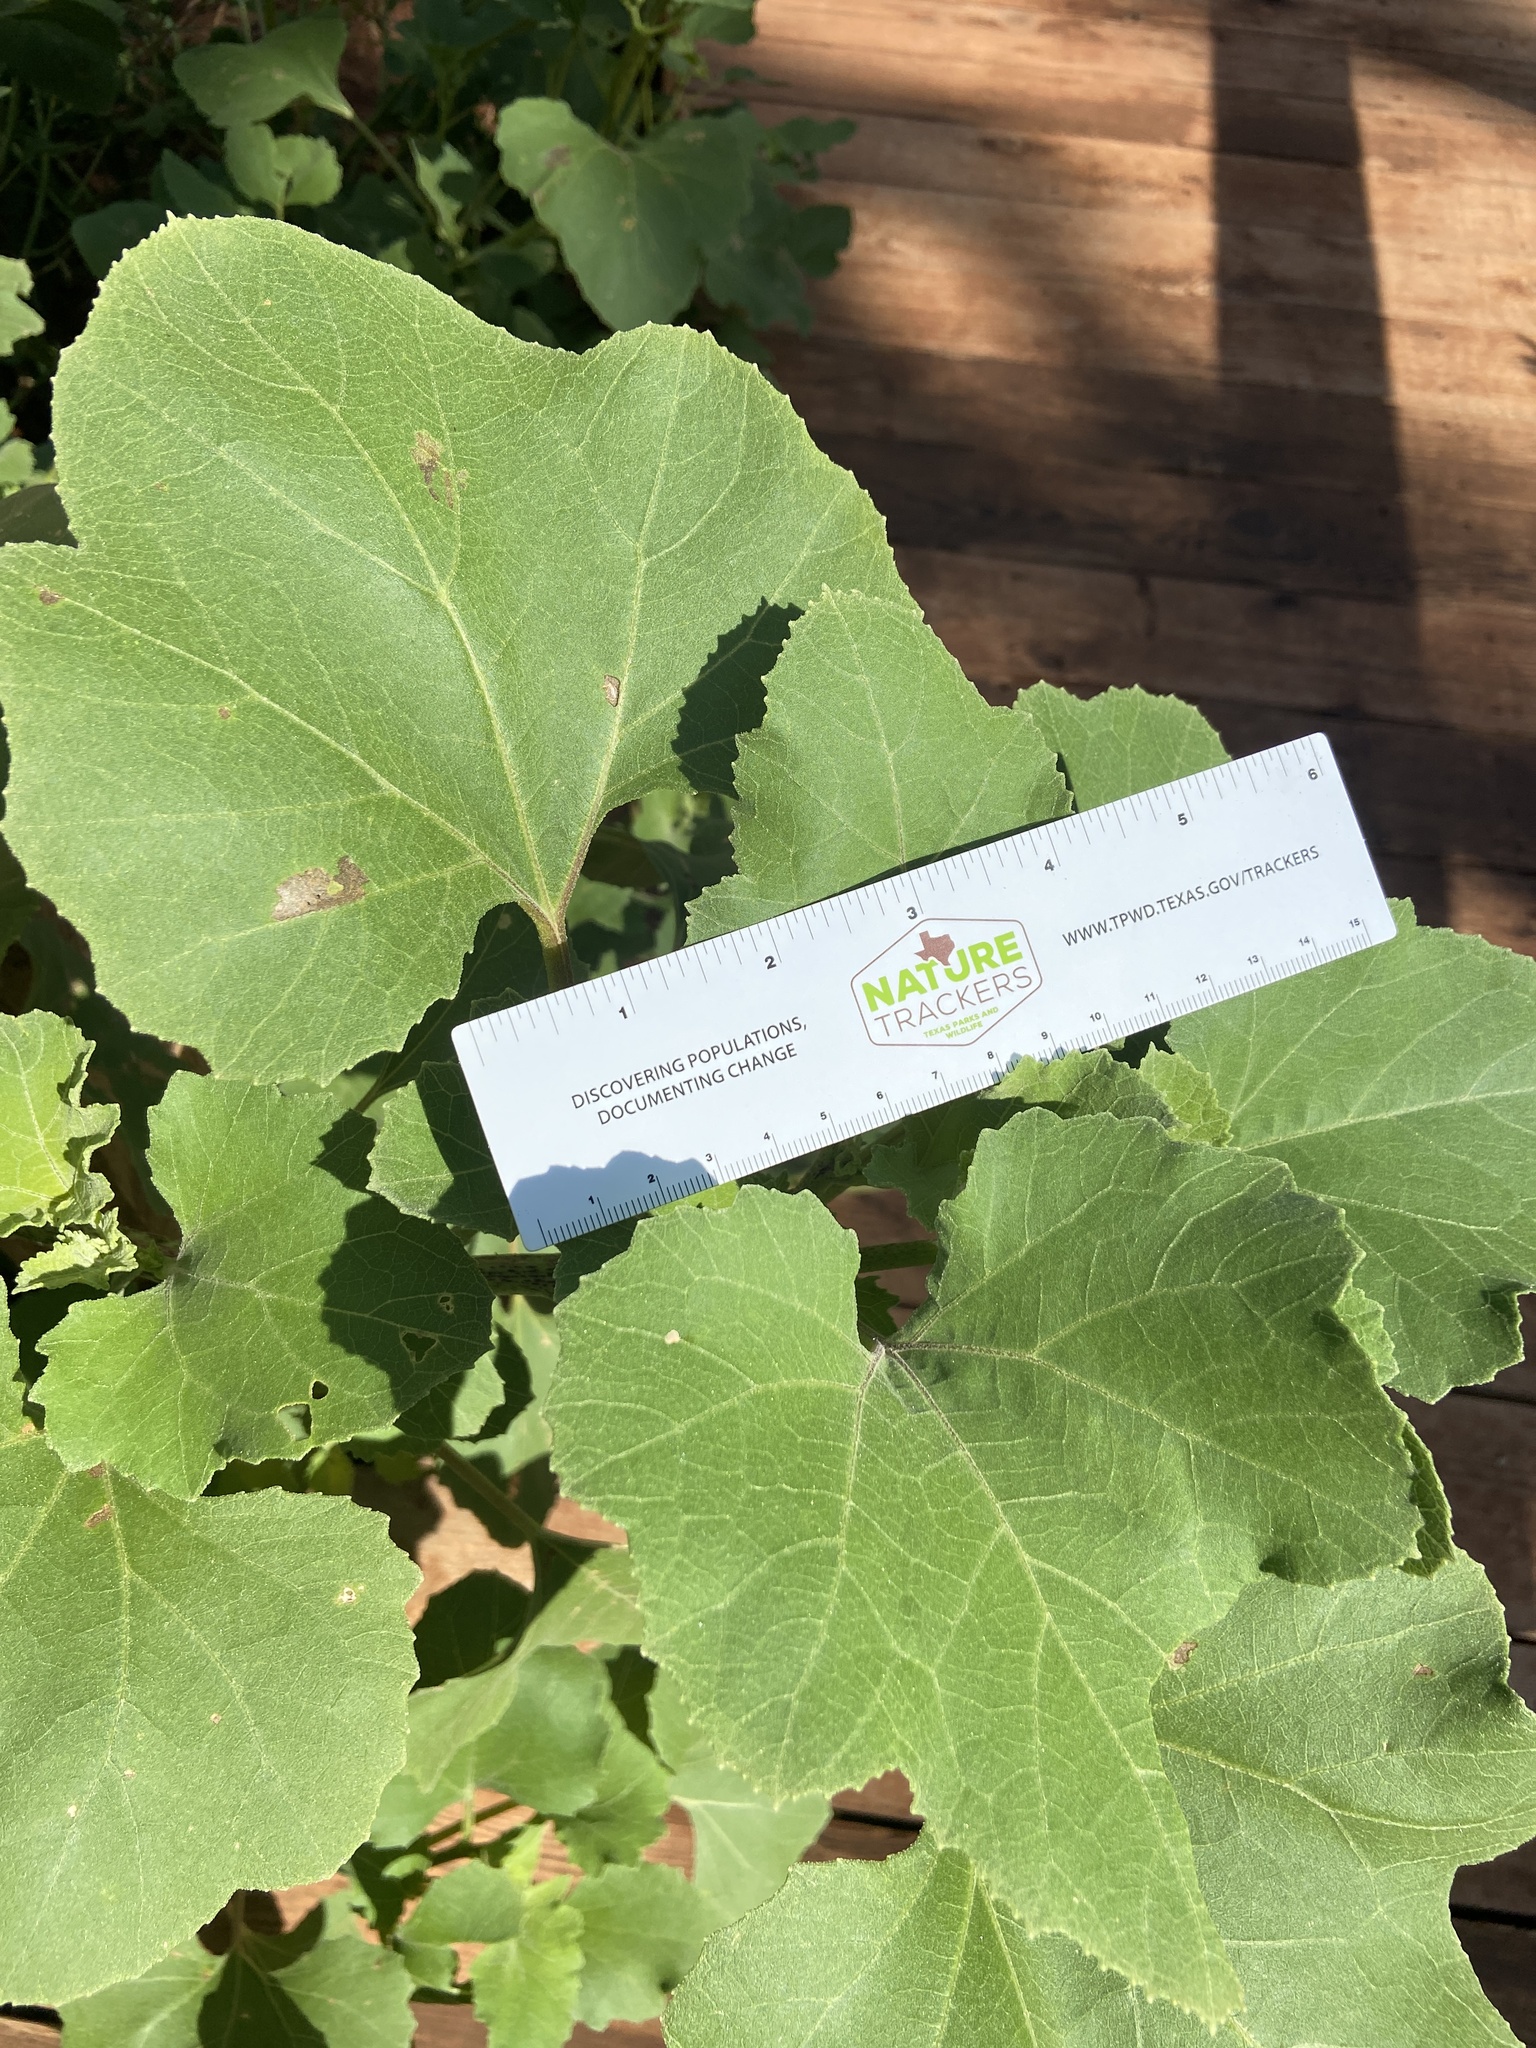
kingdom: Plantae
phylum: Tracheophyta
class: Magnoliopsida
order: Asterales
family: Asteraceae
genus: Xanthium
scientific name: Xanthium strumarium
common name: Rough cocklebur
